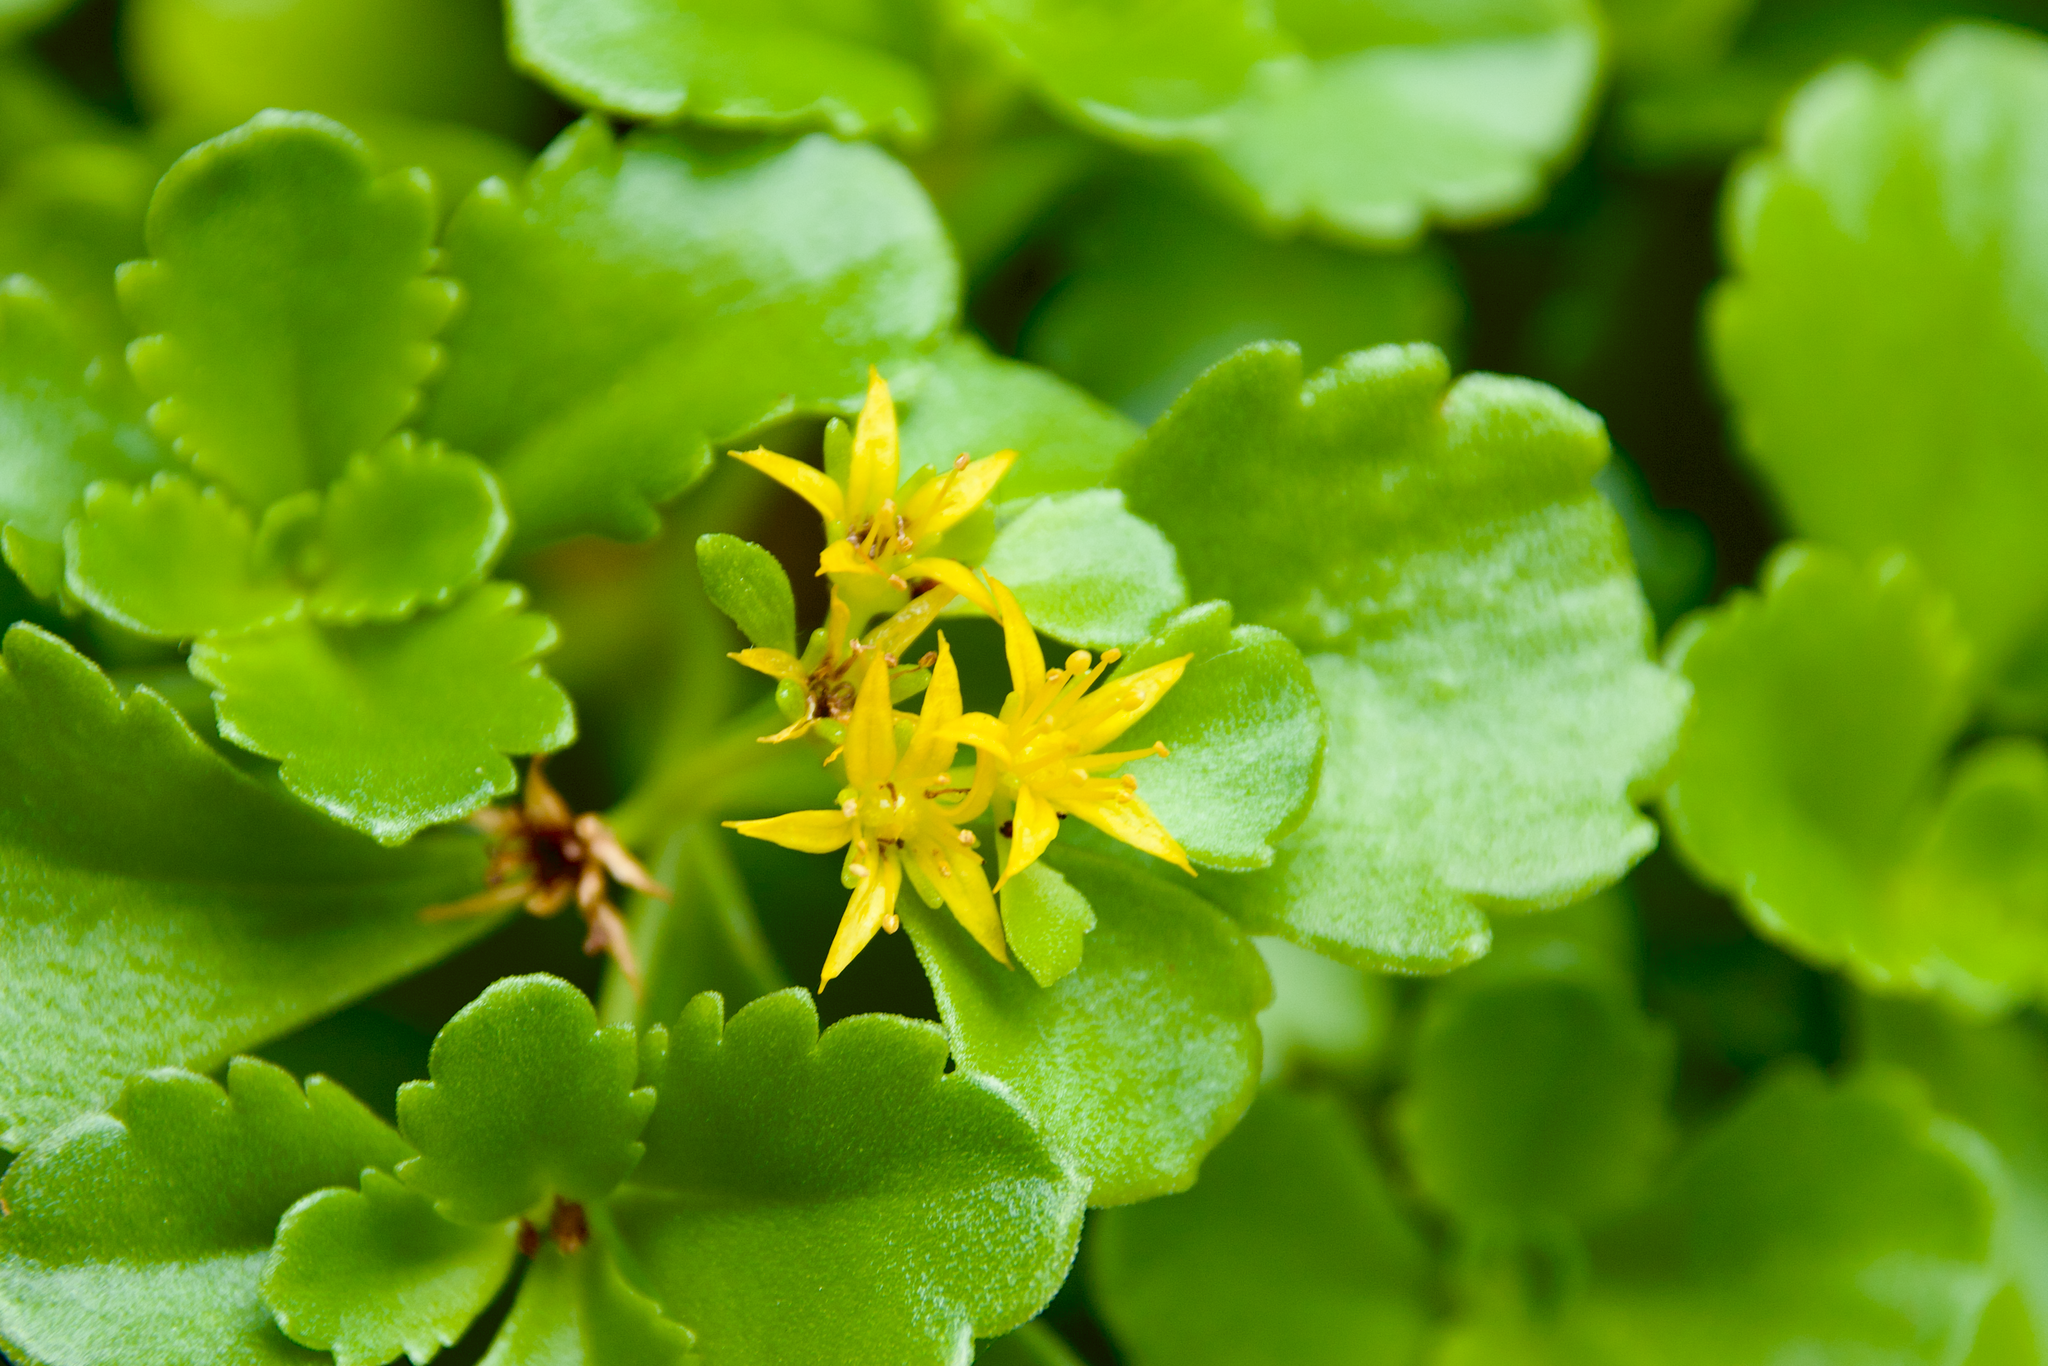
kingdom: Plantae
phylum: Tracheophyta
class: Magnoliopsida
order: Saxifragales
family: Crassulaceae
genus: Phedimus
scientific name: Phedimus ellacombeanus
